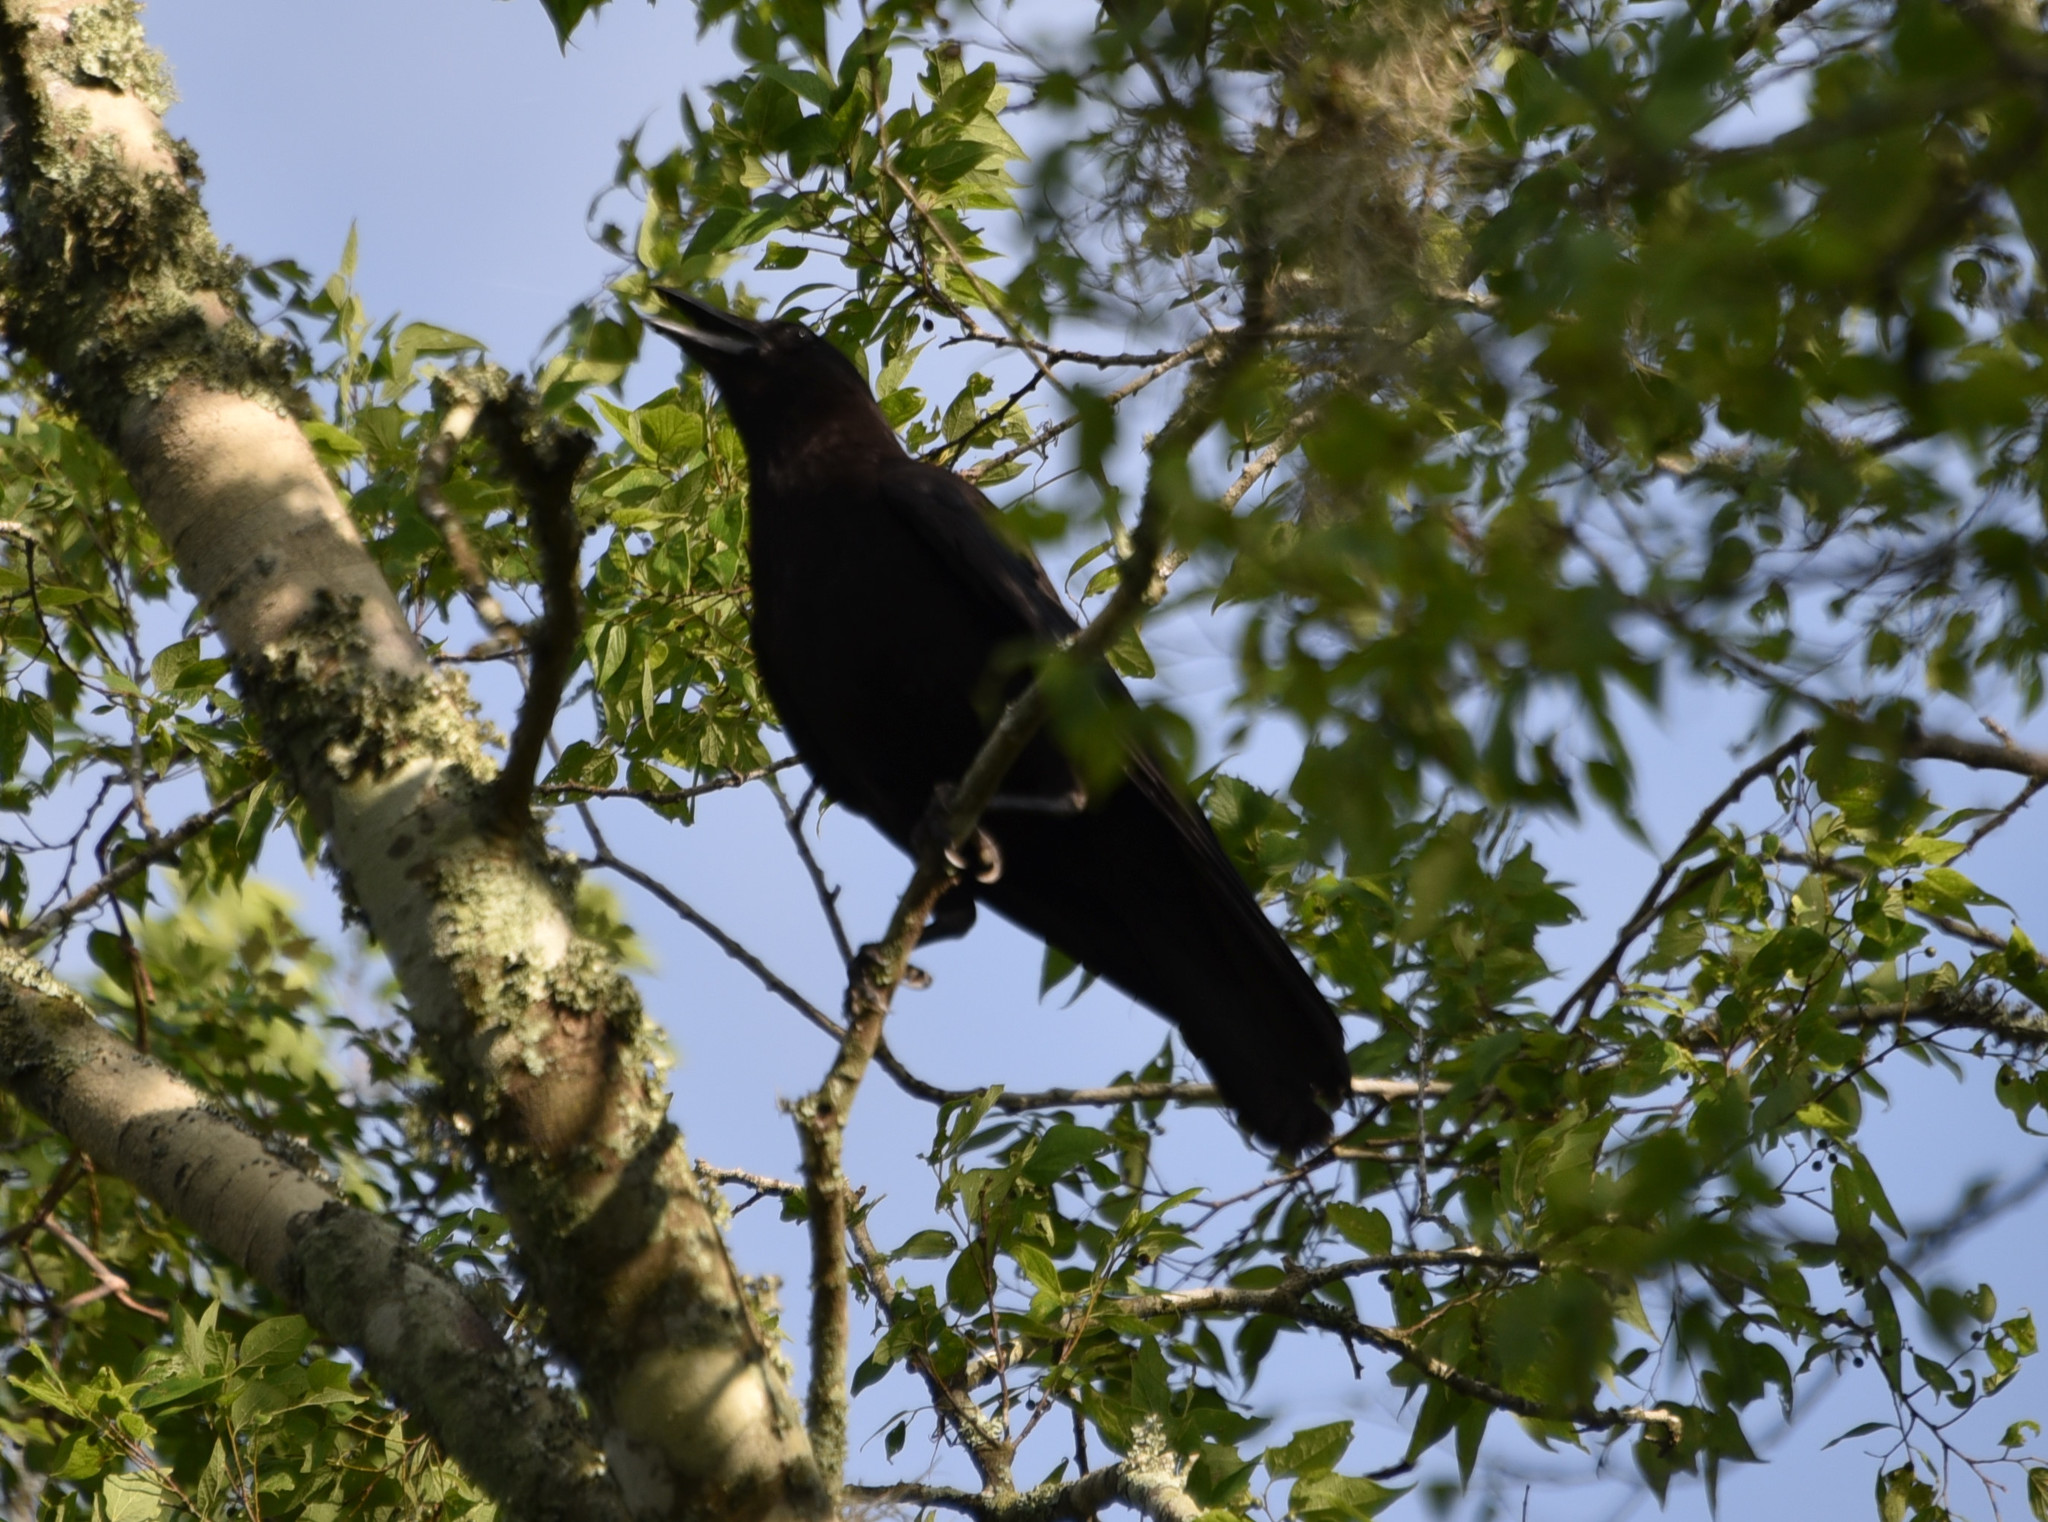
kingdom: Animalia
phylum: Chordata
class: Aves
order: Passeriformes
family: Corvidae
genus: Corvus
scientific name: Corvus brachyrhynchos
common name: American crow
